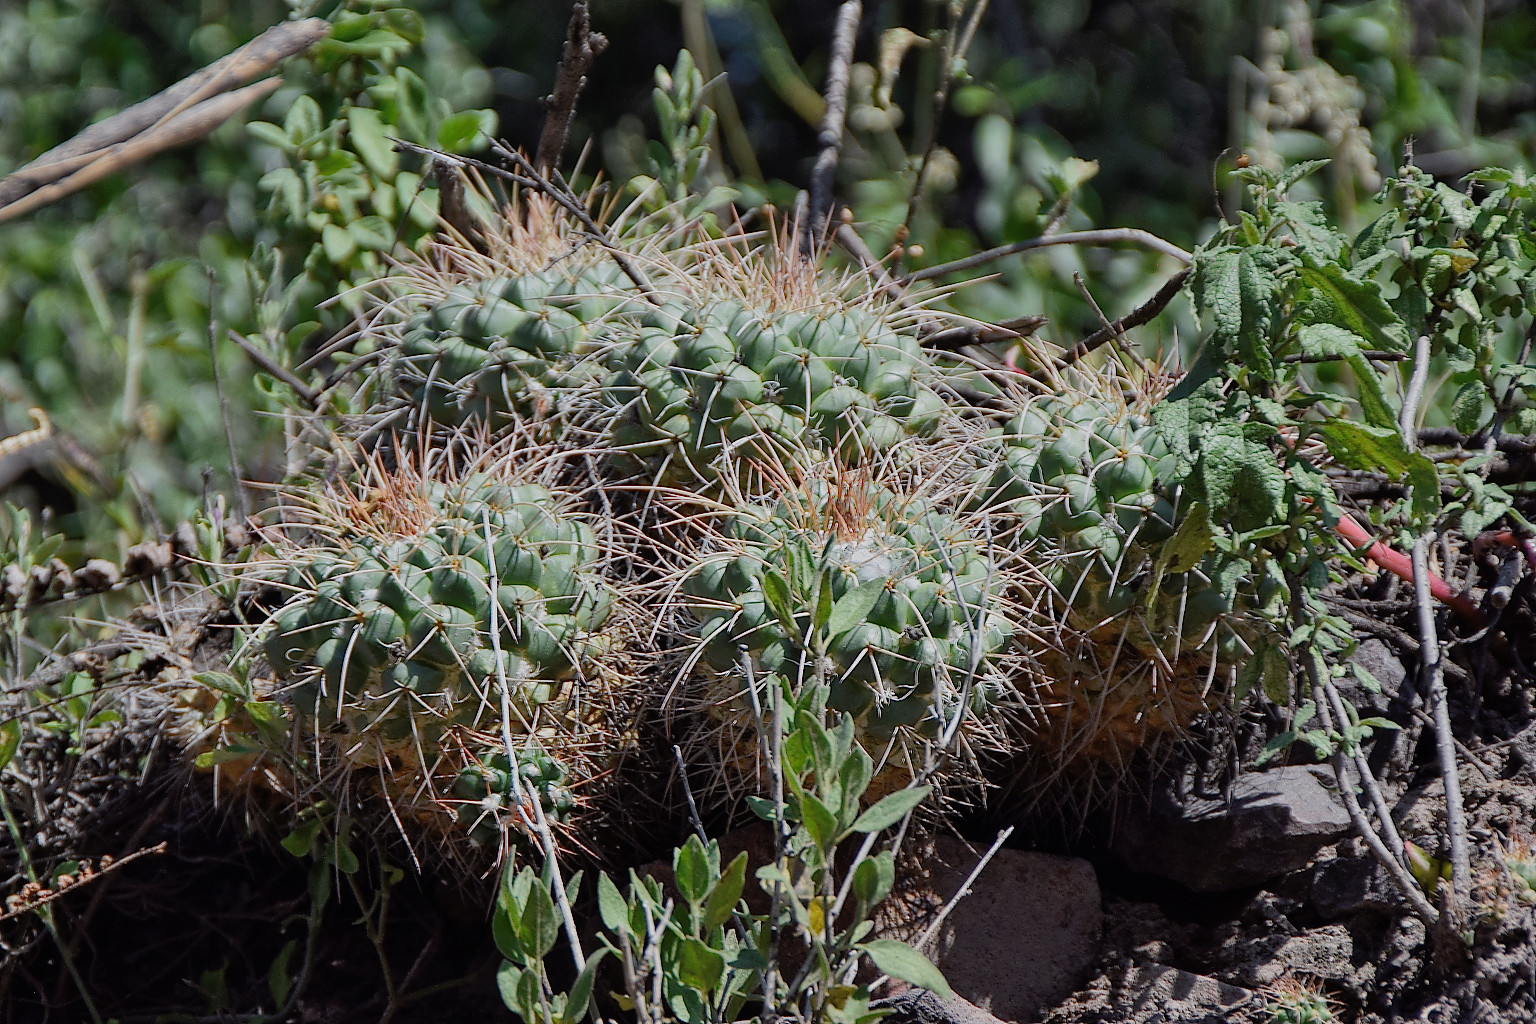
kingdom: Plantae
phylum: Tracheophyta
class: Magnoliopsida
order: Caryophyllales
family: Cactaceae
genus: Mammillaria
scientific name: Mammillaria compressa
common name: Mother-of-hundreds
